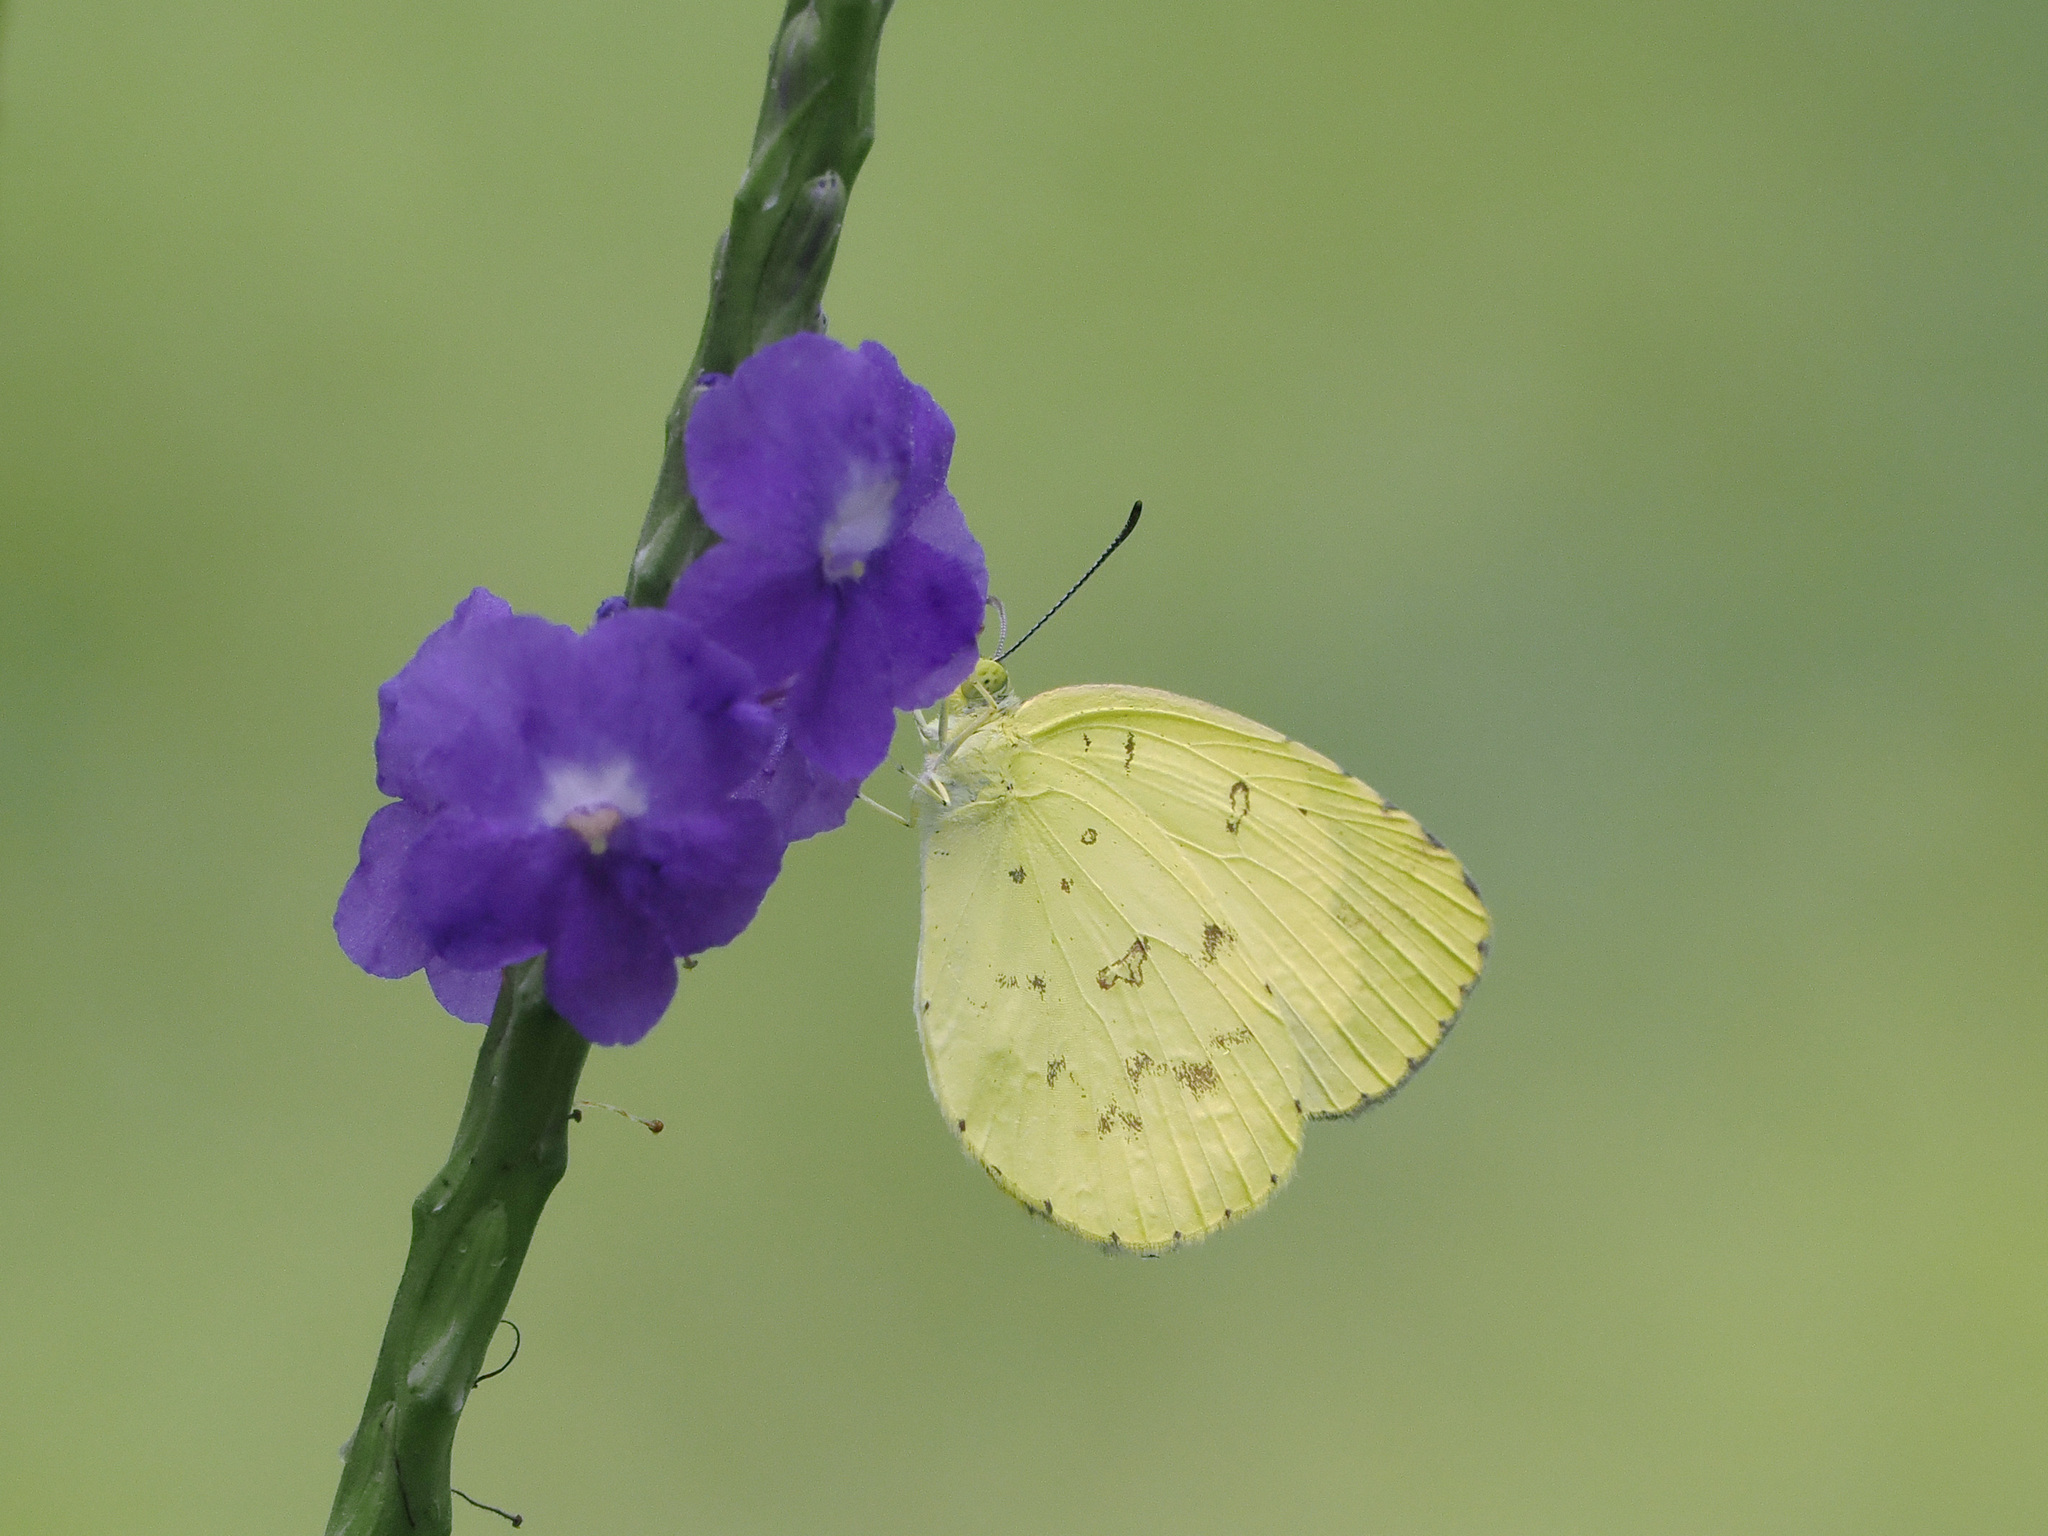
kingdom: Animalia
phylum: Arthropoda
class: Insecta
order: Lepidoptera
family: Pieridae
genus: Eurema
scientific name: Eurema hecabe
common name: Pale grass yellow
